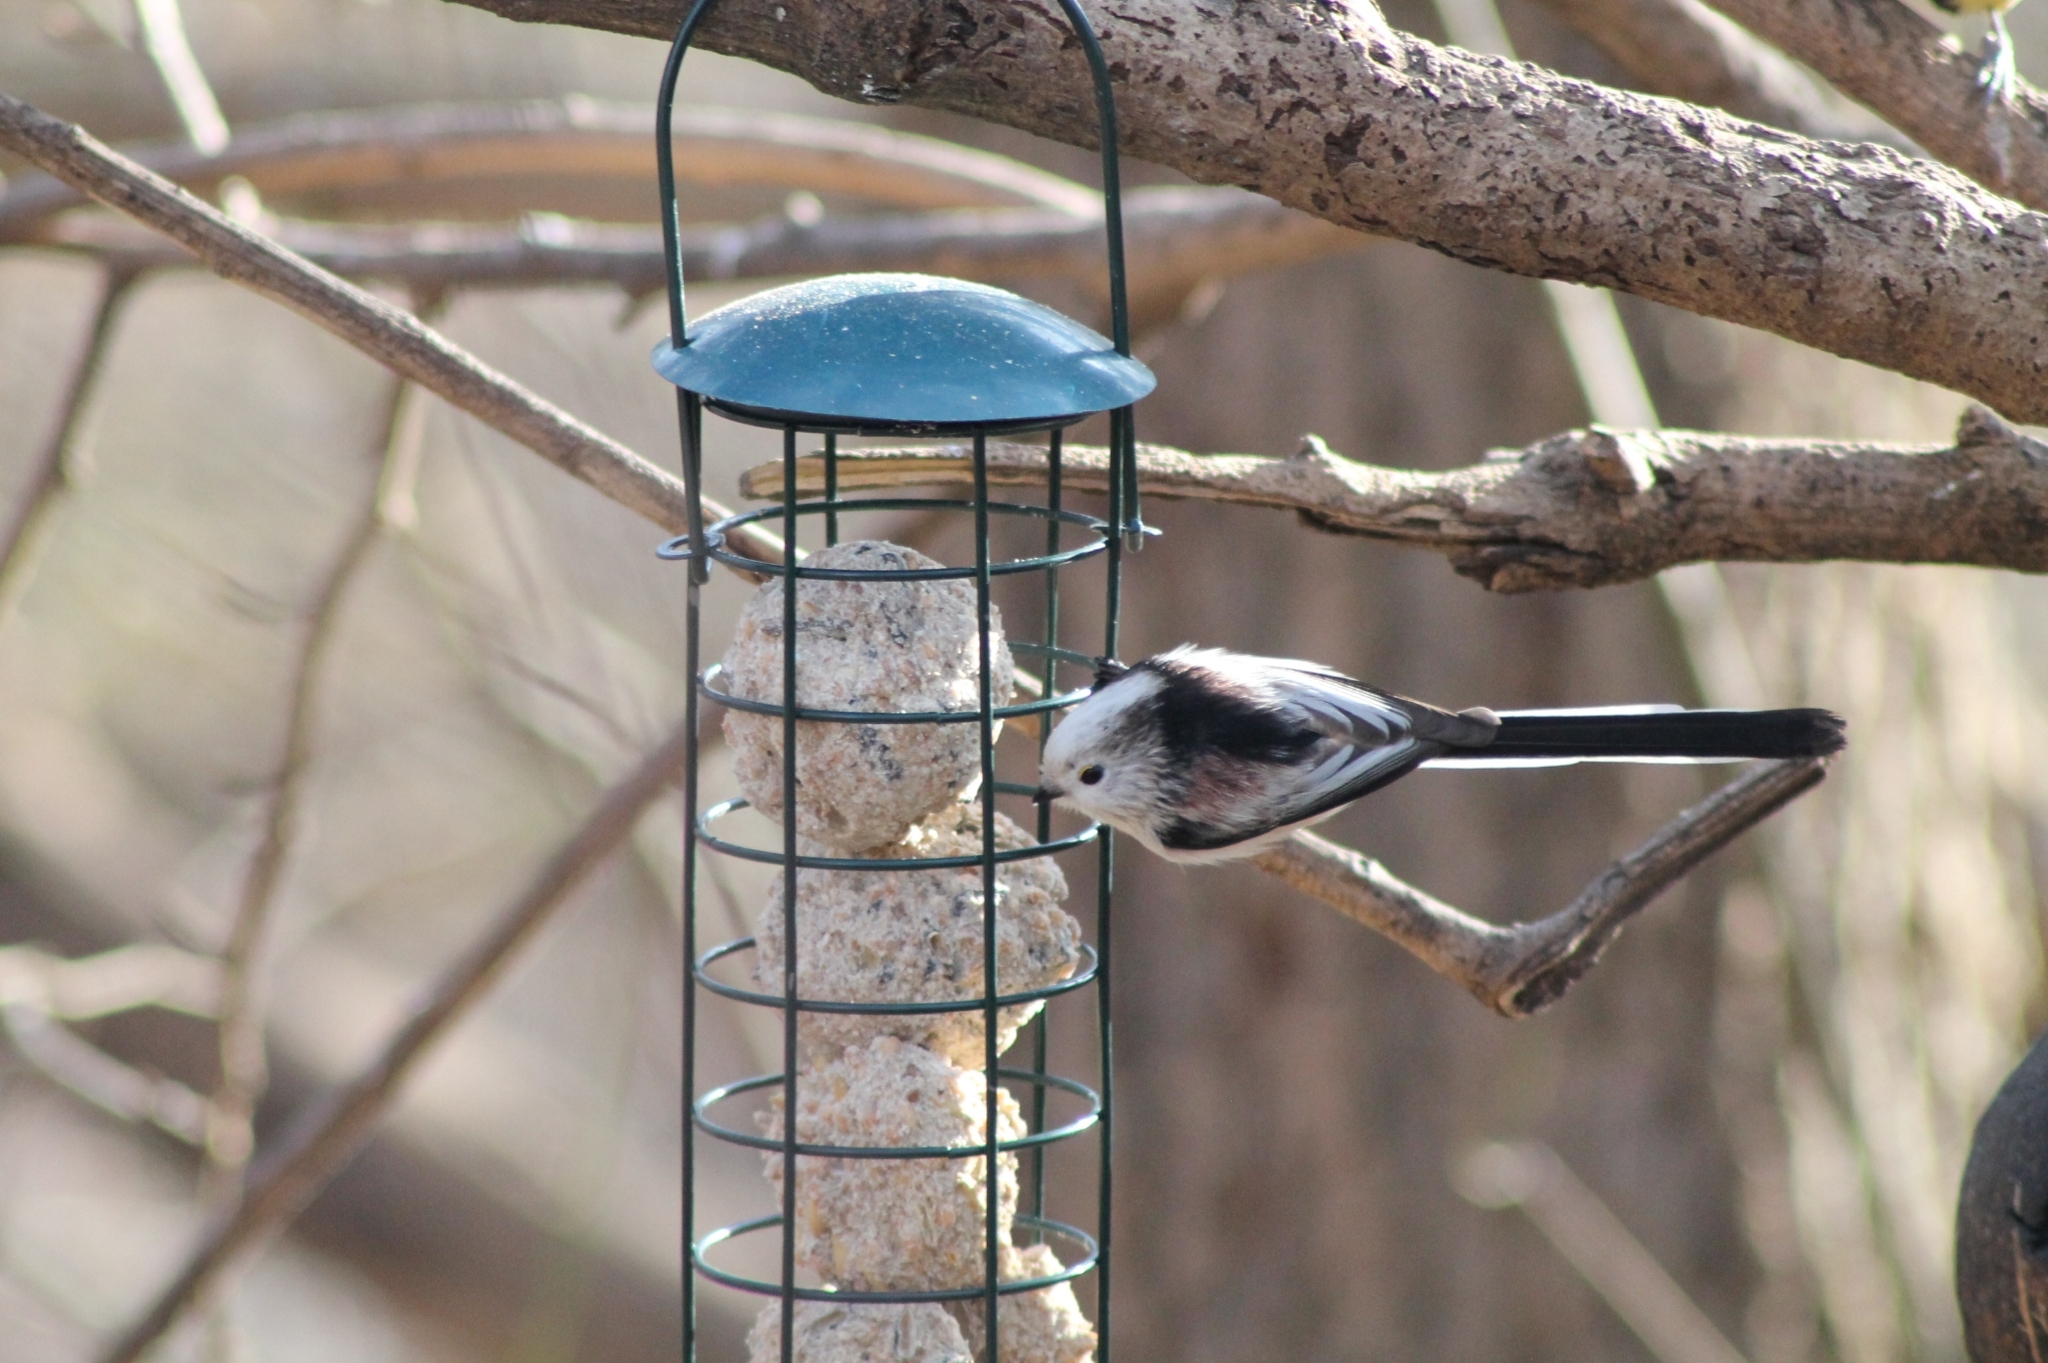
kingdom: Animalia
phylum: Chordata
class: Aves
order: Passeriformes
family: Aegithalidae
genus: Aegithalos
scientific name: Aegithalos caudatus
